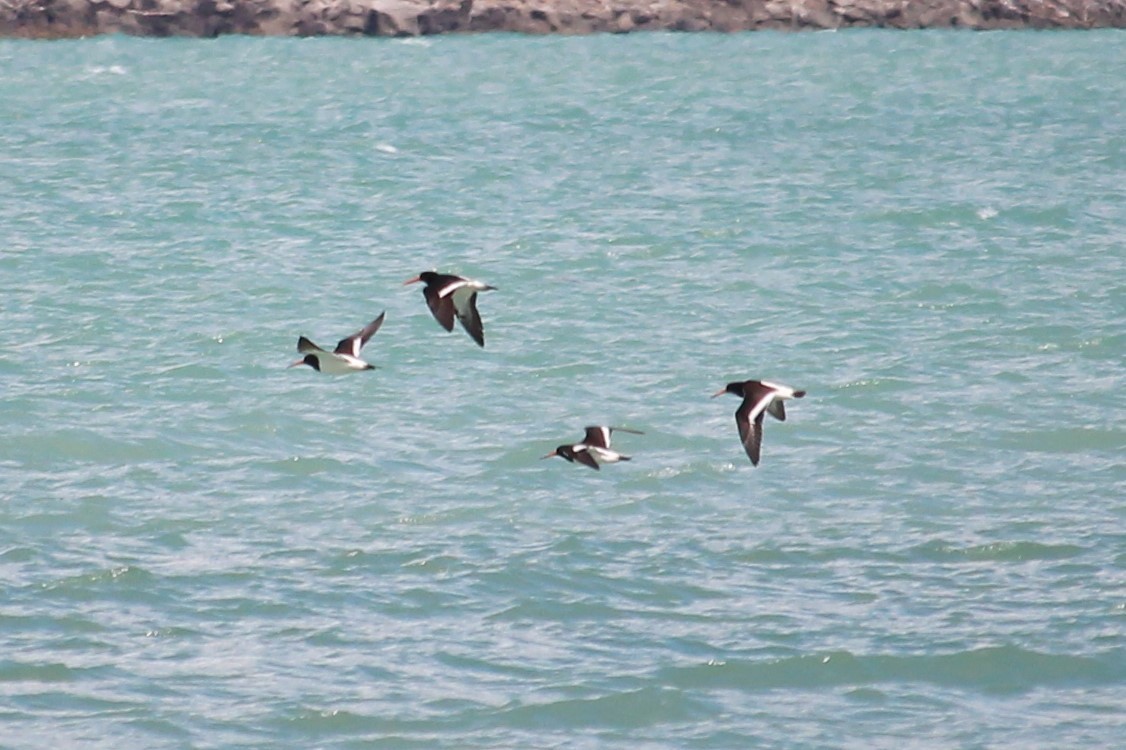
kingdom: Animalia
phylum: Chordata
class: Aves
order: Charadriiformes
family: Haematopodidae
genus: Haematopus
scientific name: Haematopus finschi
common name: South island oystercatcher
